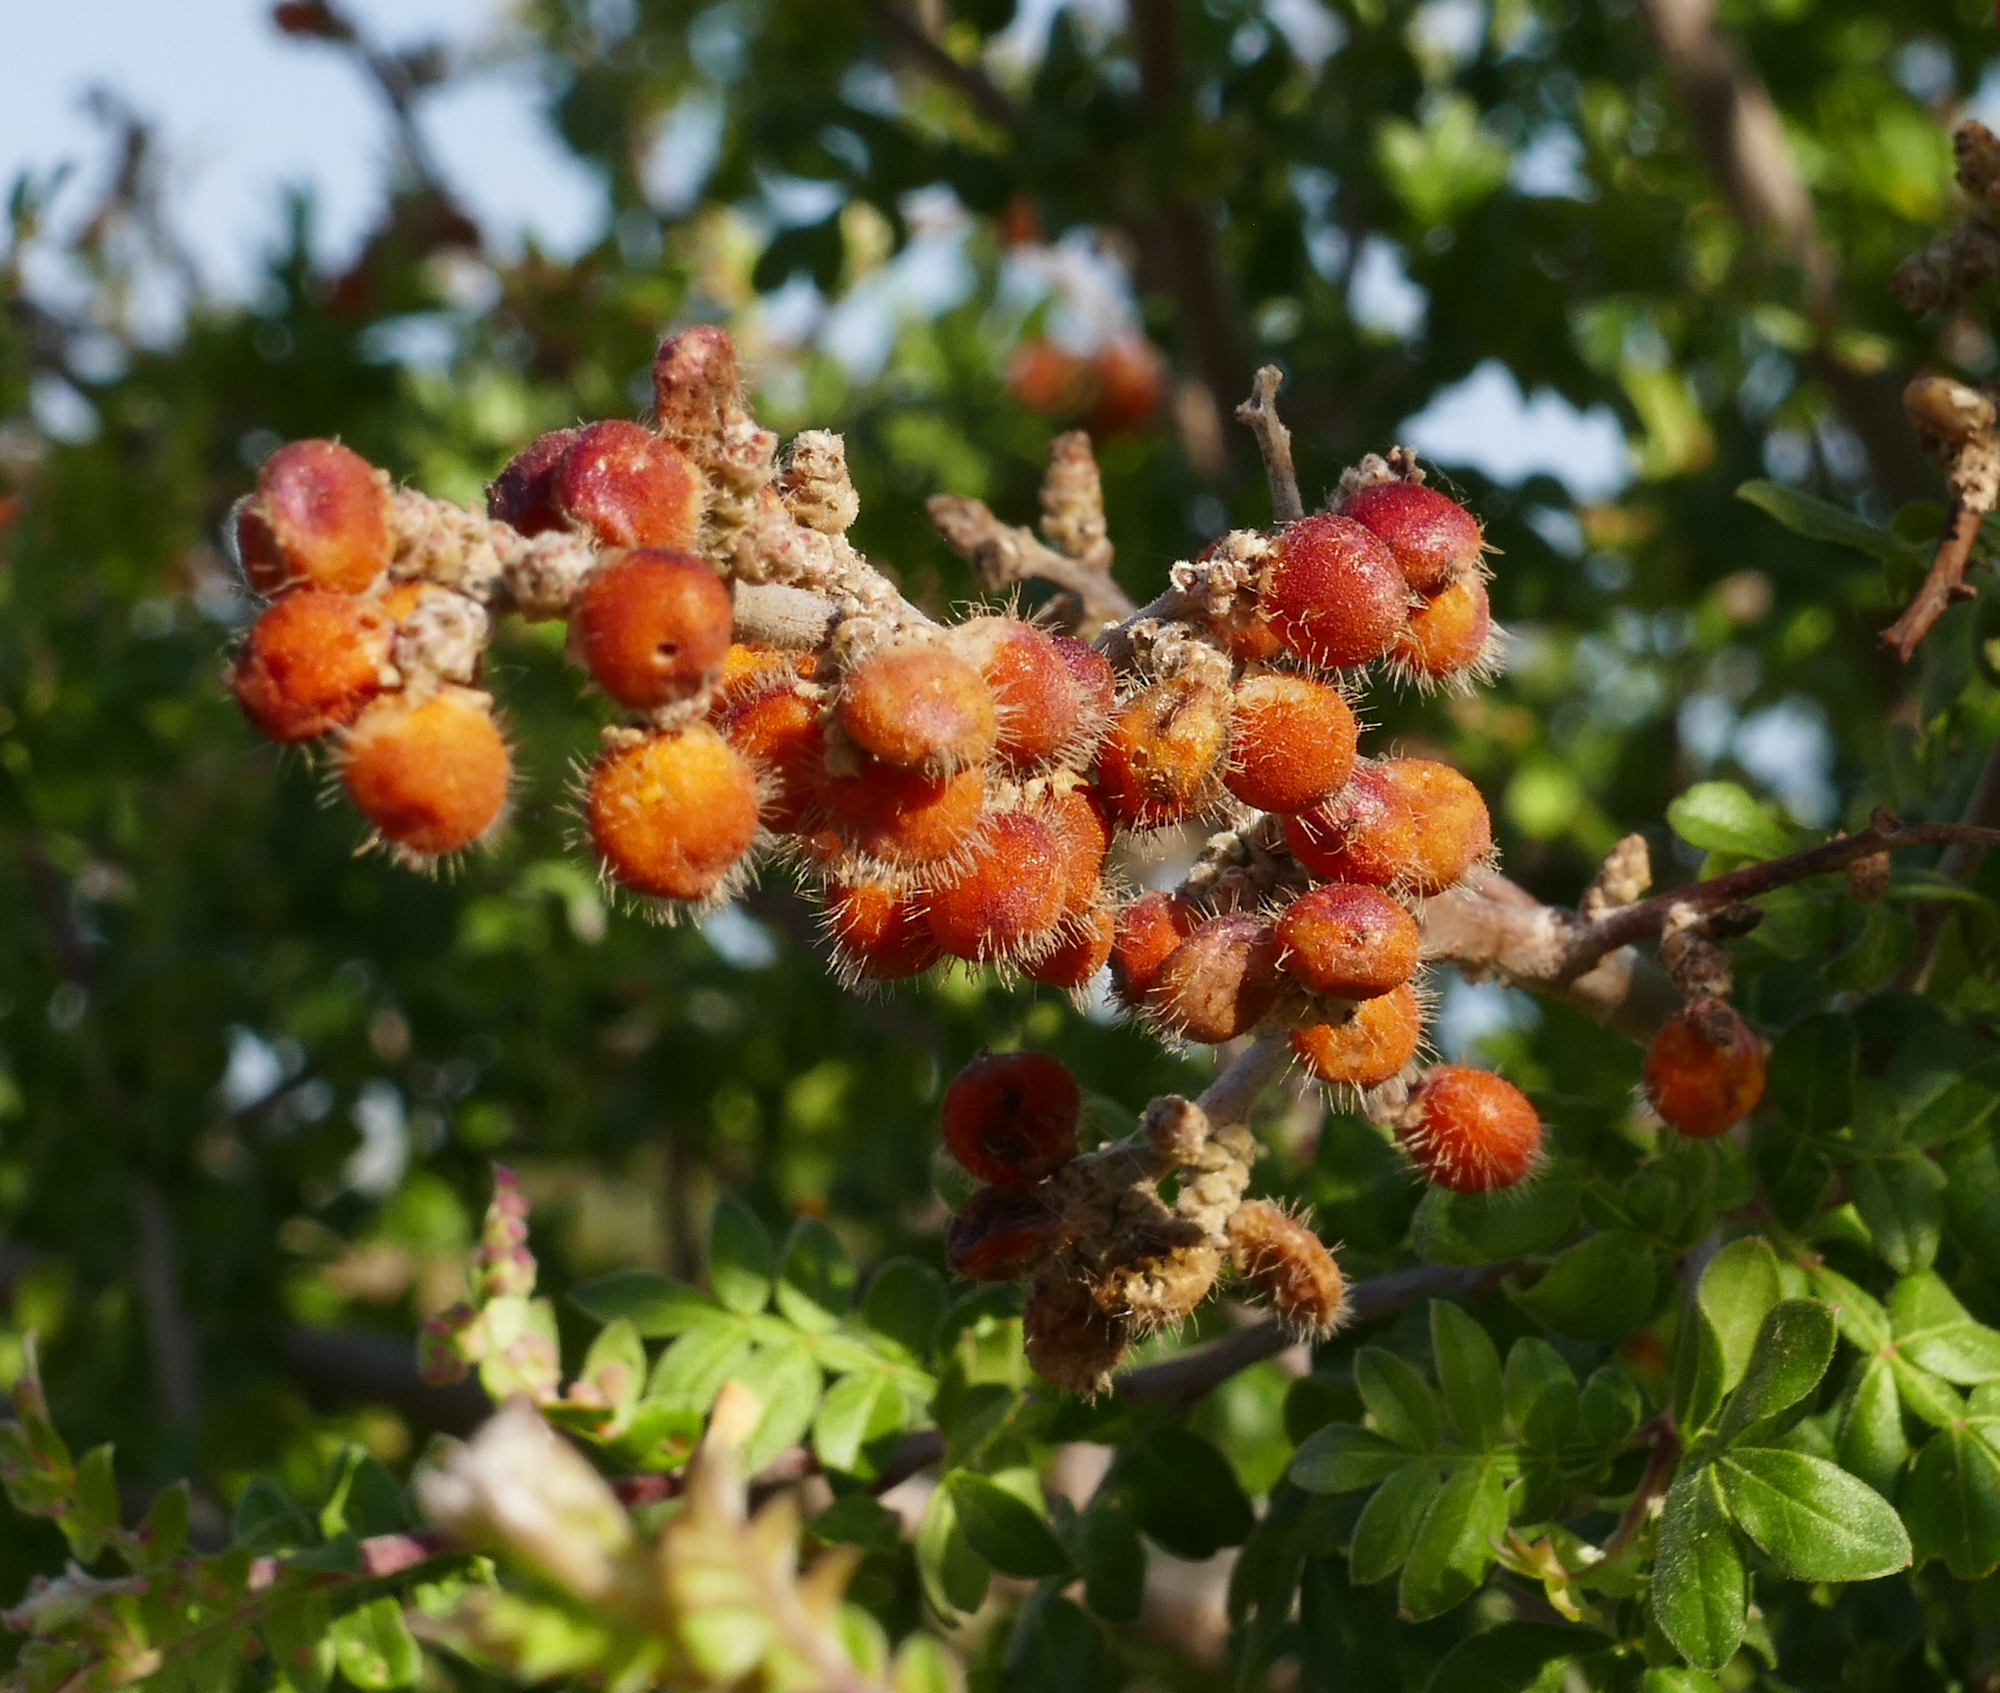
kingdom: Plantae
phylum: Tracheophyta
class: Magnoliopsida
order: Sapindales
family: Anacardiaceae
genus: Rhus
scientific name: Rhus microphylla
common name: Desert sumac
